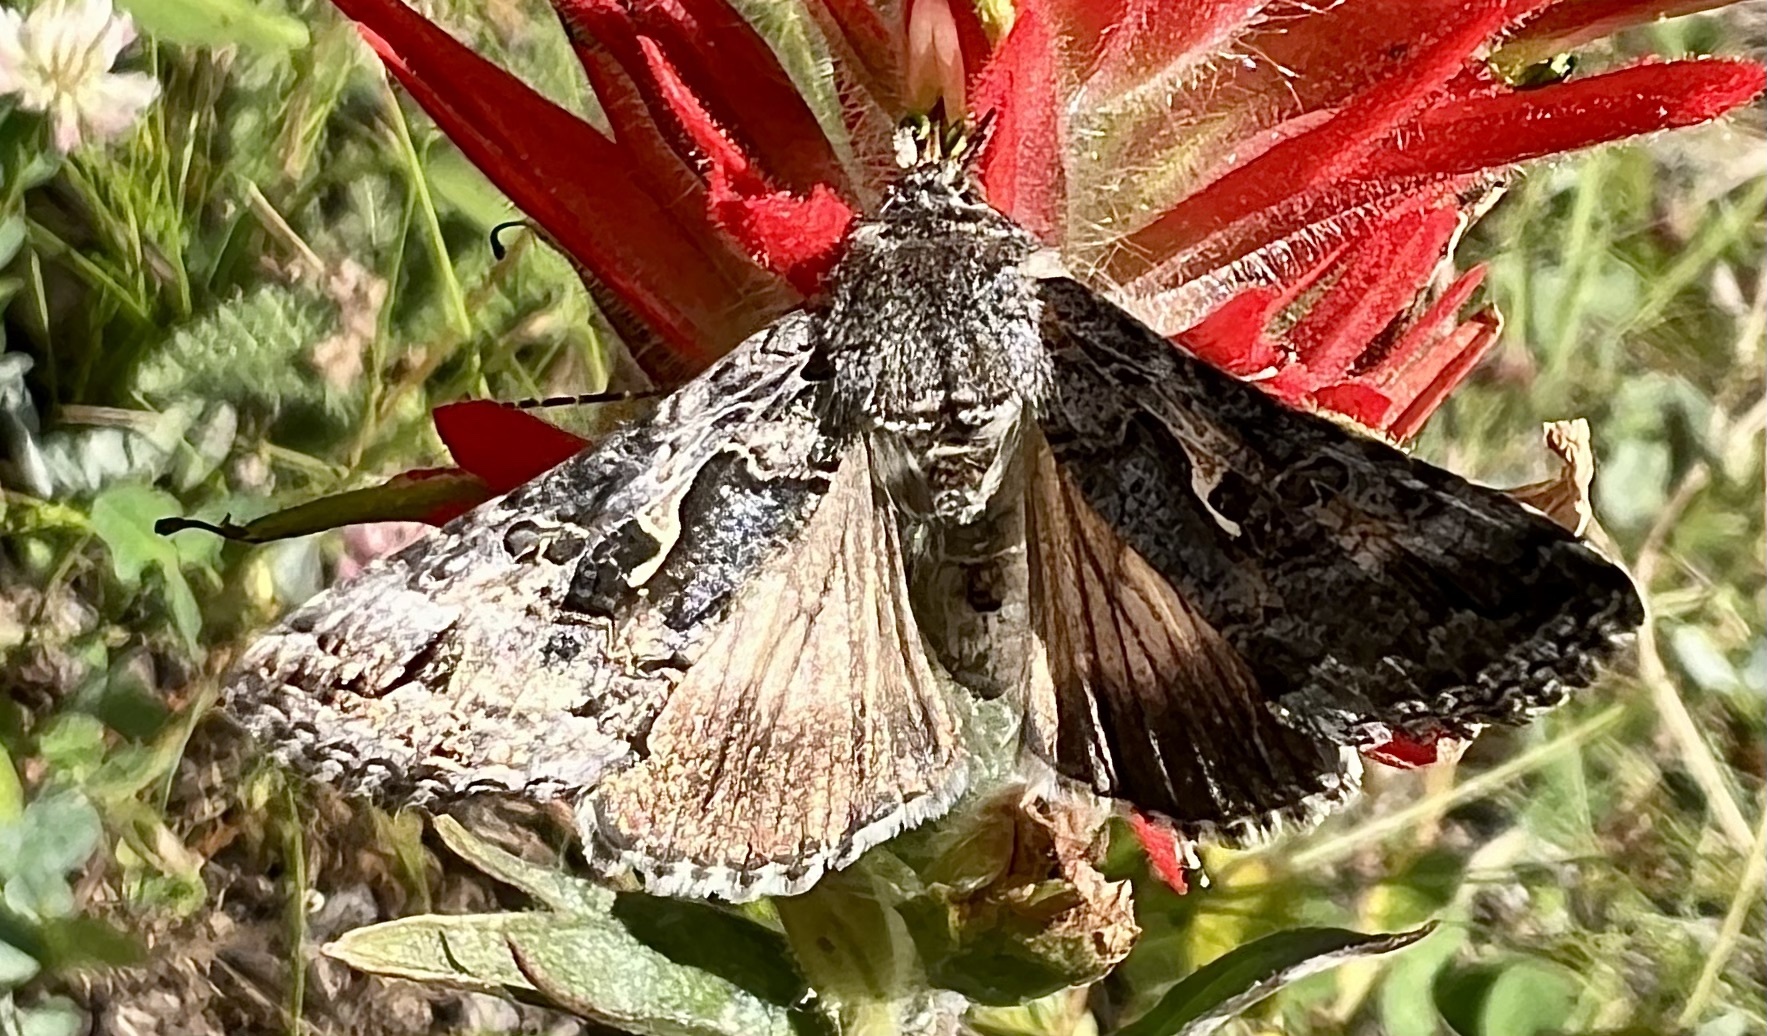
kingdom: Animalia
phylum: Arthropoda
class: Insecta
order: Lepidoptera
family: Noctuidae
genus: Autographa
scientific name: Autographa californica
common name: Alfalfa looper
